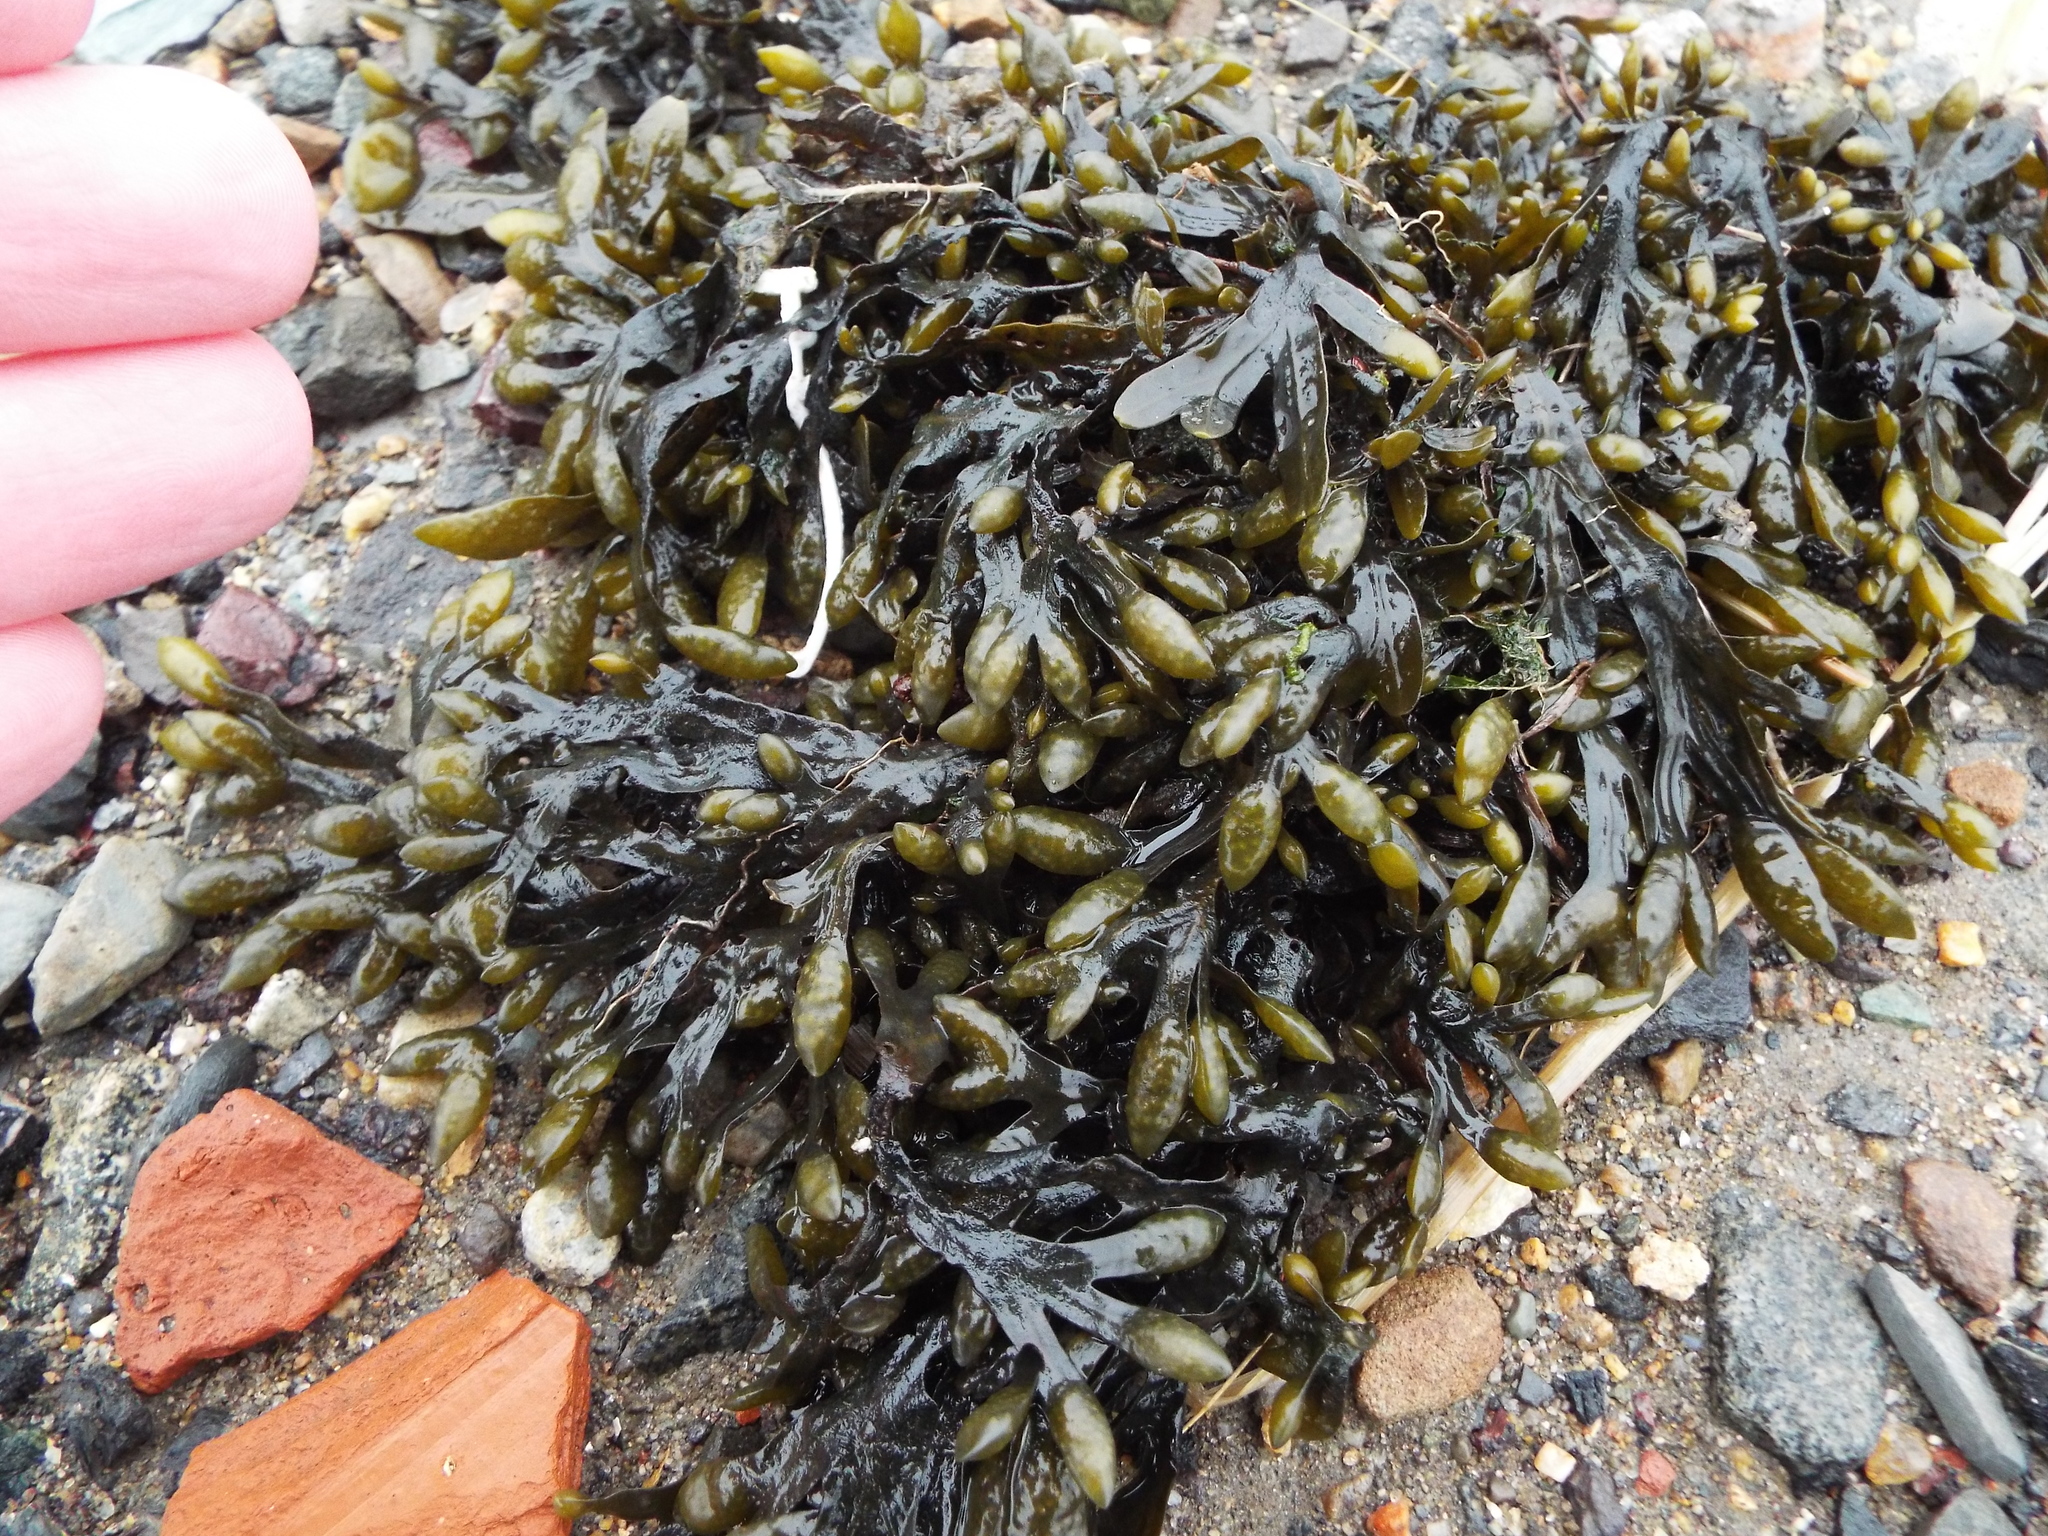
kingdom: Chromista
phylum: Ochrophyta
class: Phaeophyceae
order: Fucales
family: Fucaceae
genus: Fucus
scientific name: Fucus distichus
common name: Rockweed
